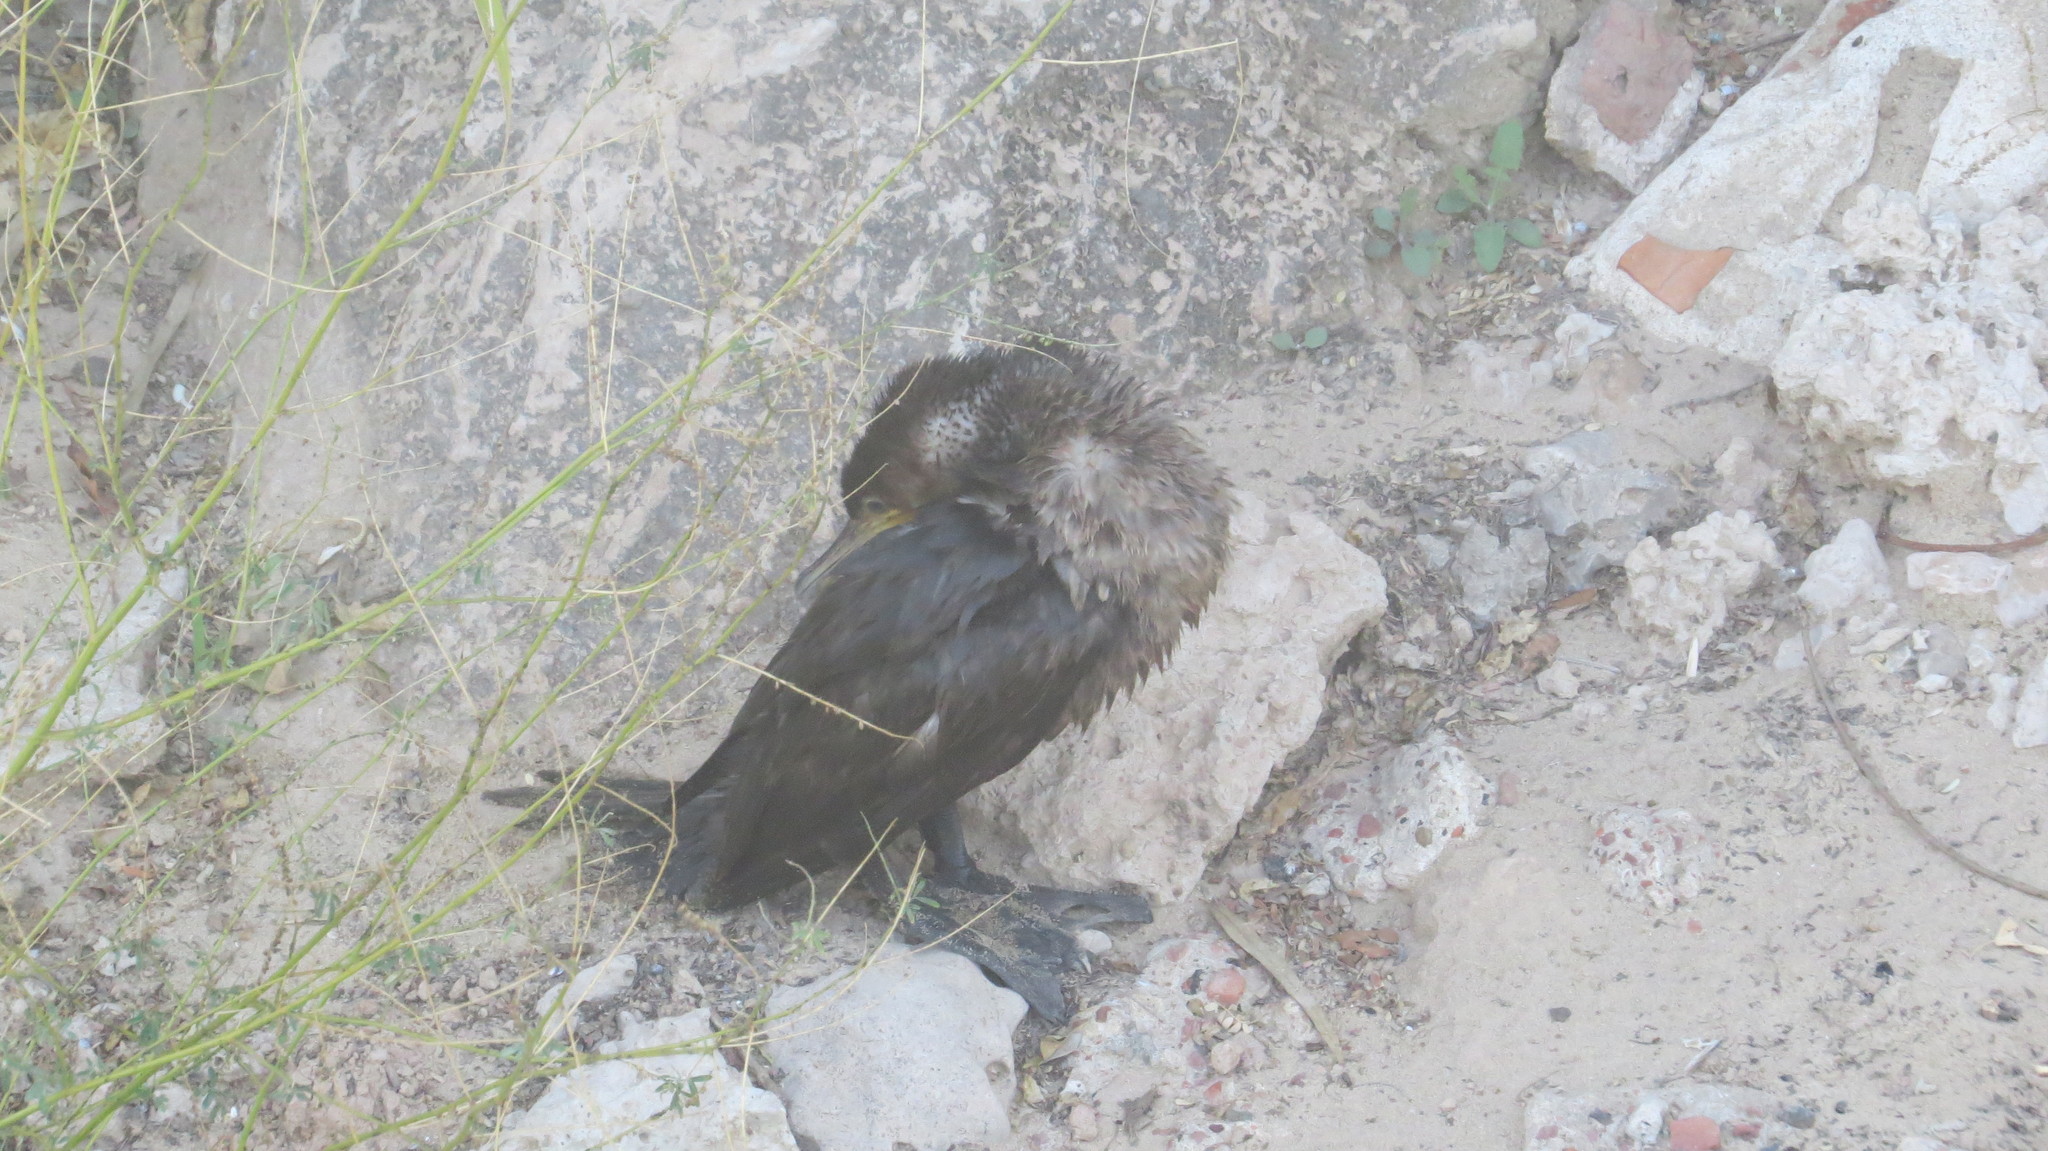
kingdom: Animalia
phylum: Chordata
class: Aves
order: Suliformes
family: Phalacrocoracidae
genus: Phalacrocorax
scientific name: Phalacrocorax brasilianus
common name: Neotropic cormorant
